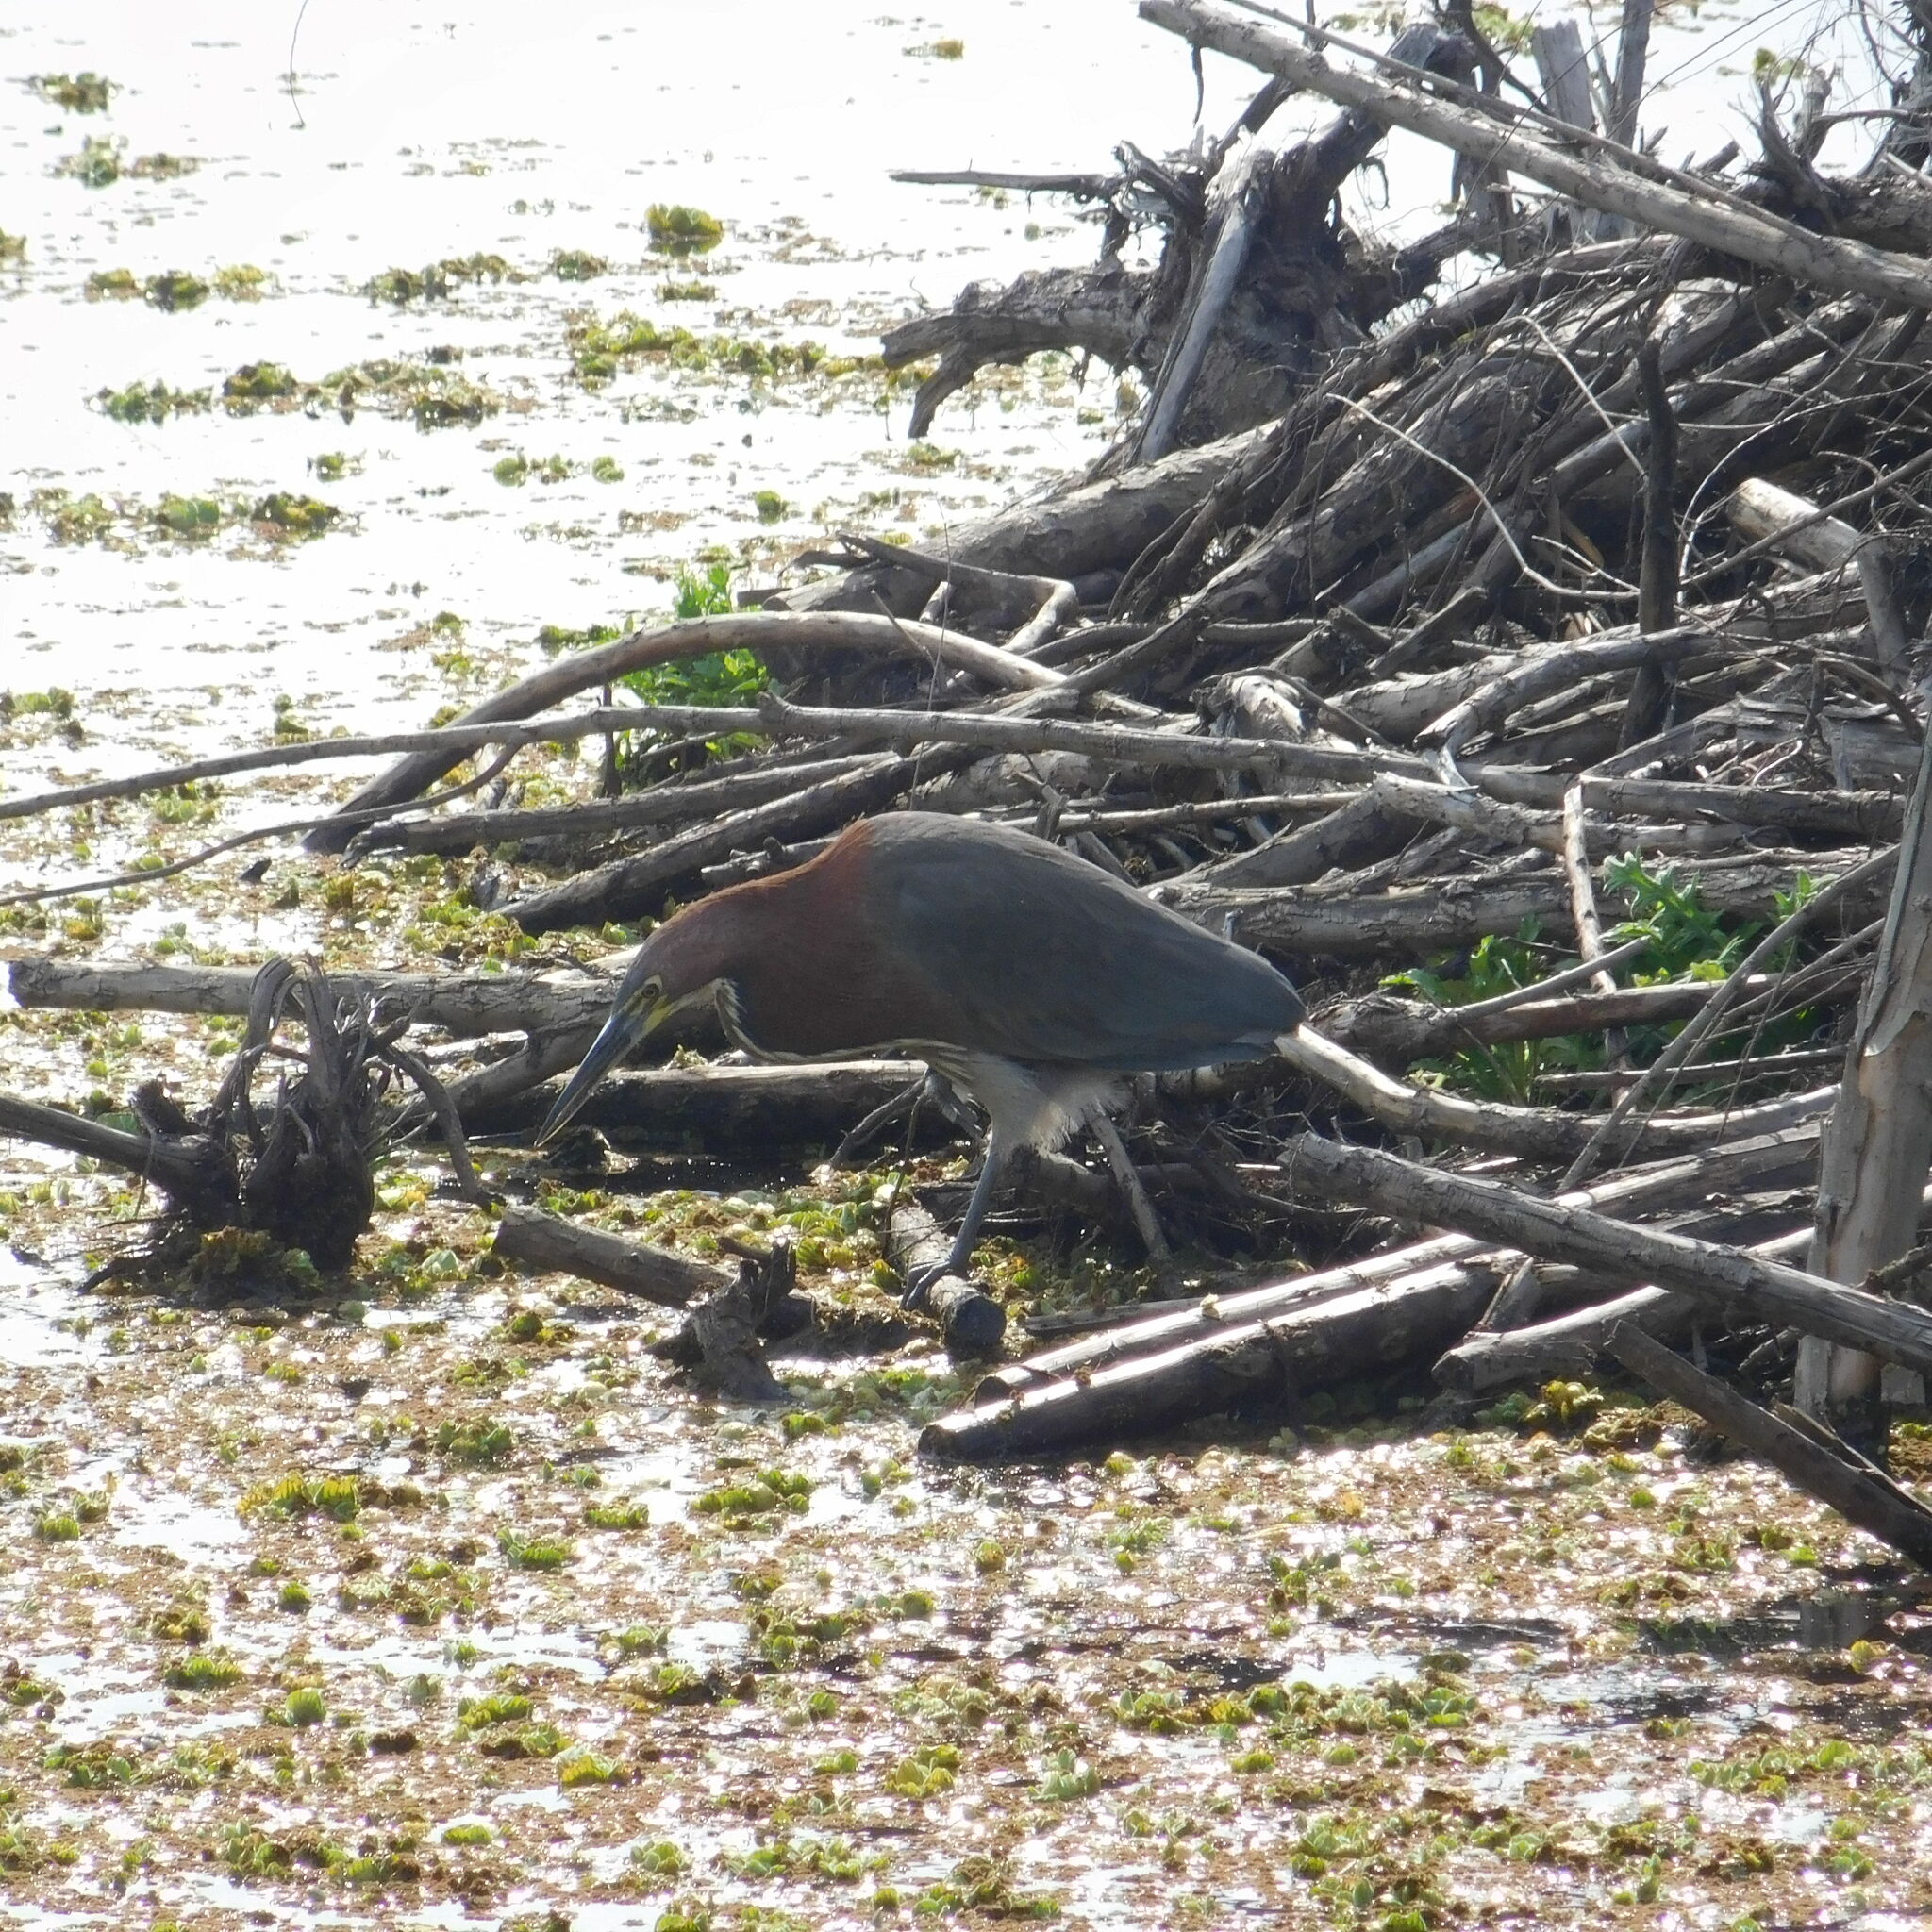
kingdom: Animalia
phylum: Chordata
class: Aves
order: Pelecaniformes
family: Ardeidae
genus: Tigrisoma
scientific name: Tigrisoma lineatum
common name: Rufescent tiger-heron
